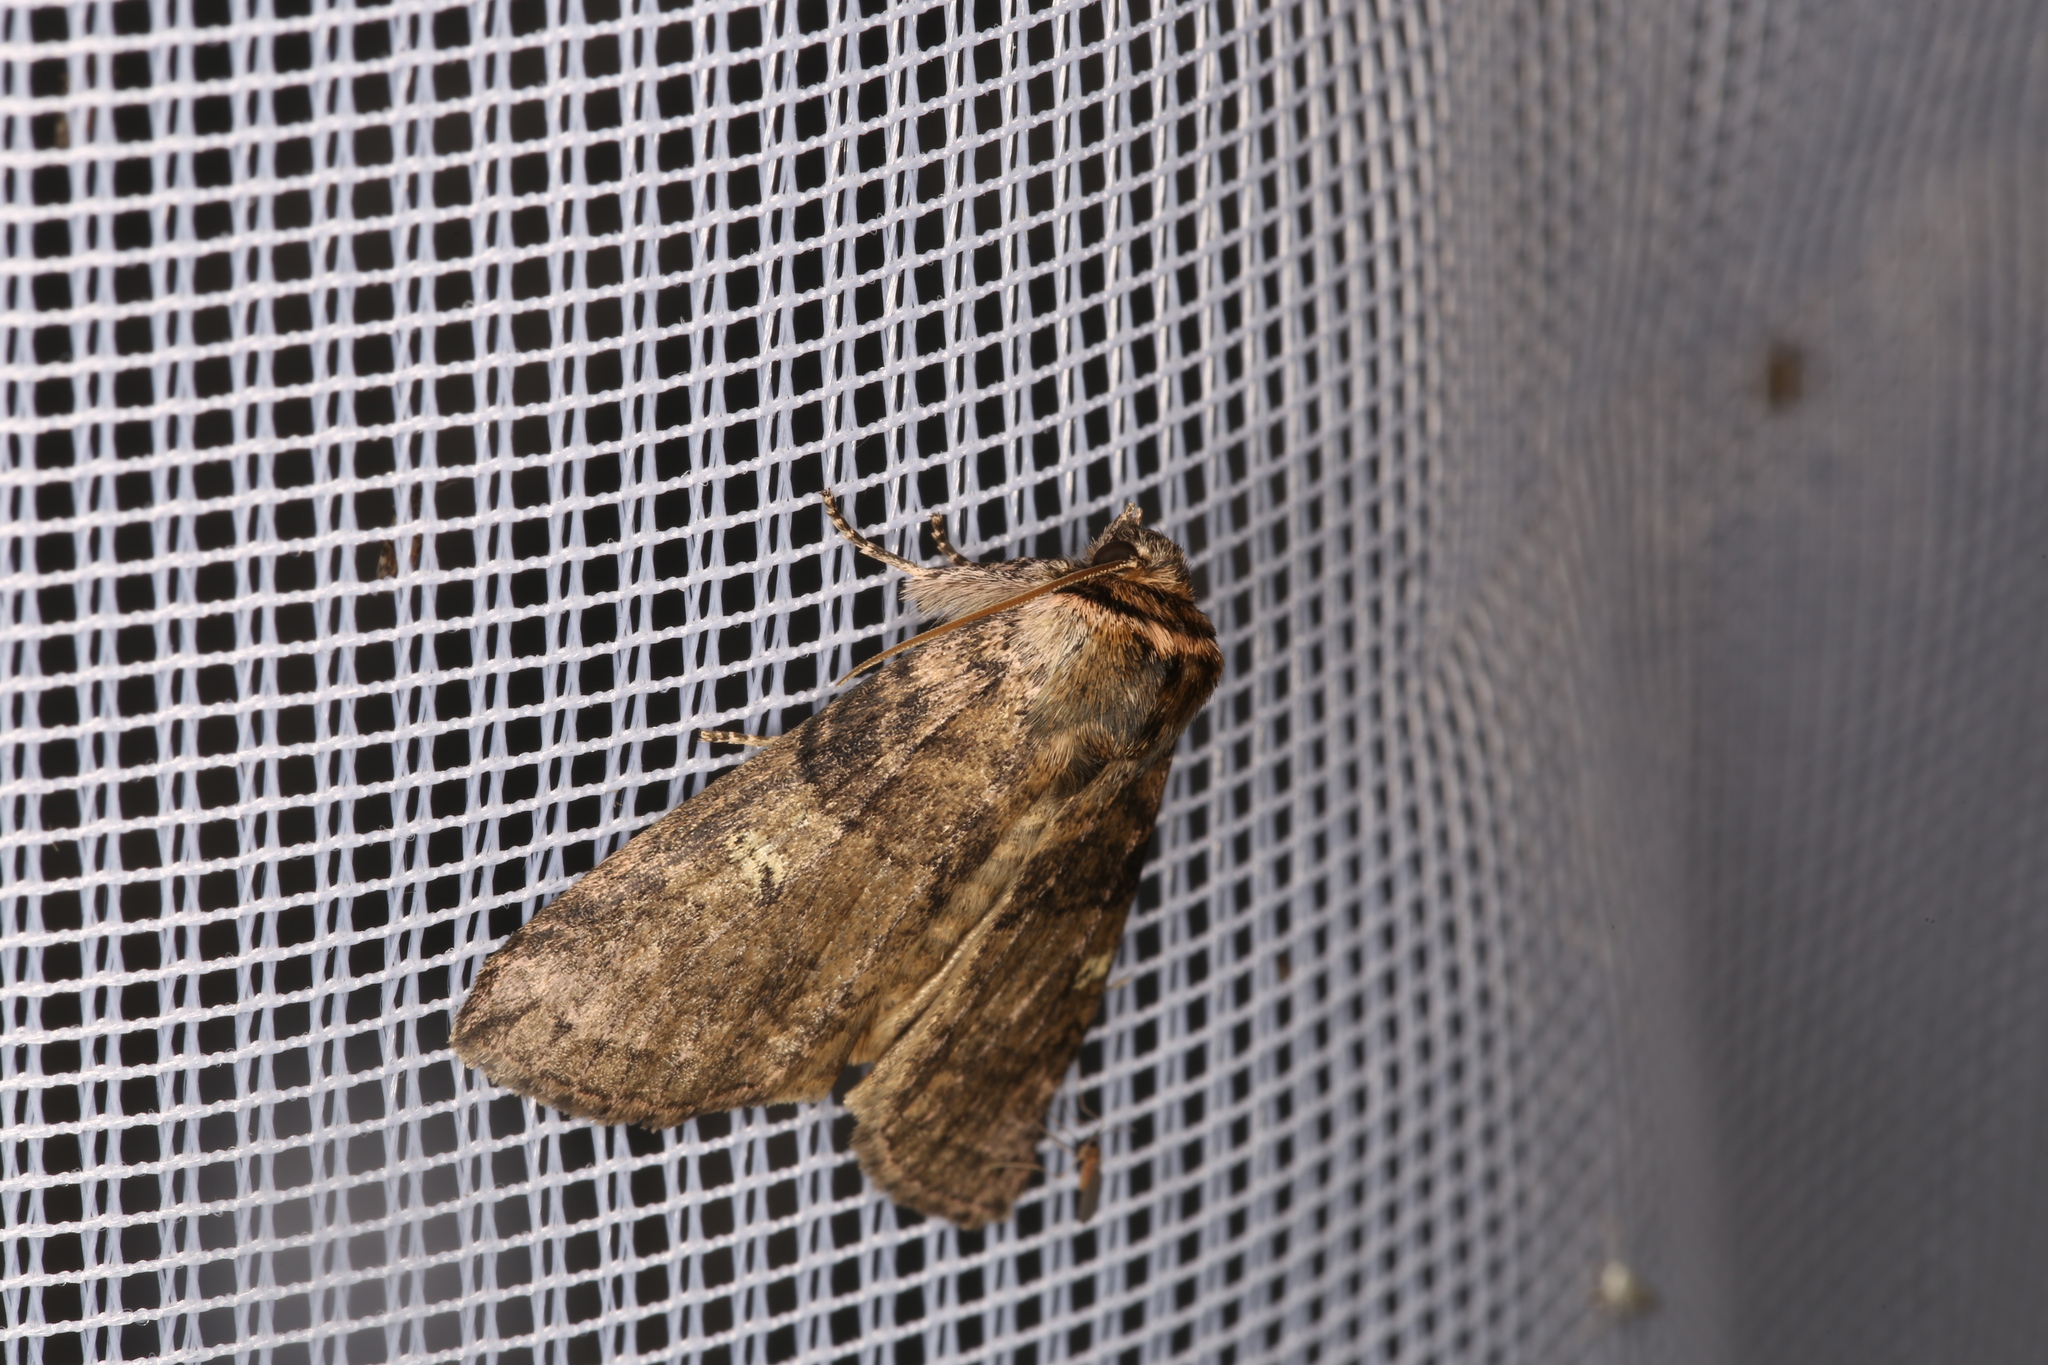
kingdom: Animalia
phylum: Arthropoda
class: Insecta
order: Lepidoptera
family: Drepanidae
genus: Tethea
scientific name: Tethea or
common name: Poplar lutestring
